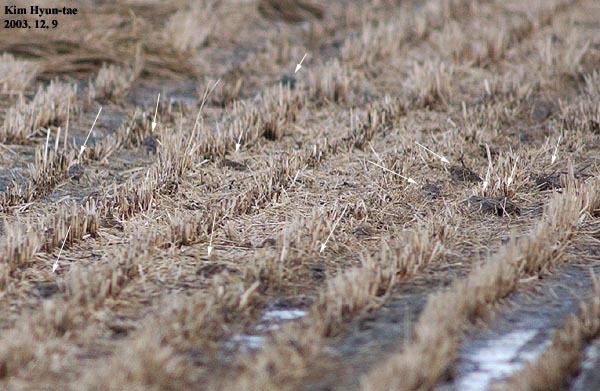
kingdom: Animalia
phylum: Chordata
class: Aves
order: Passeriformes
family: Calcariidae
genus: Calcarius
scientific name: Calcarius lapponicus
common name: Lapland longspur
